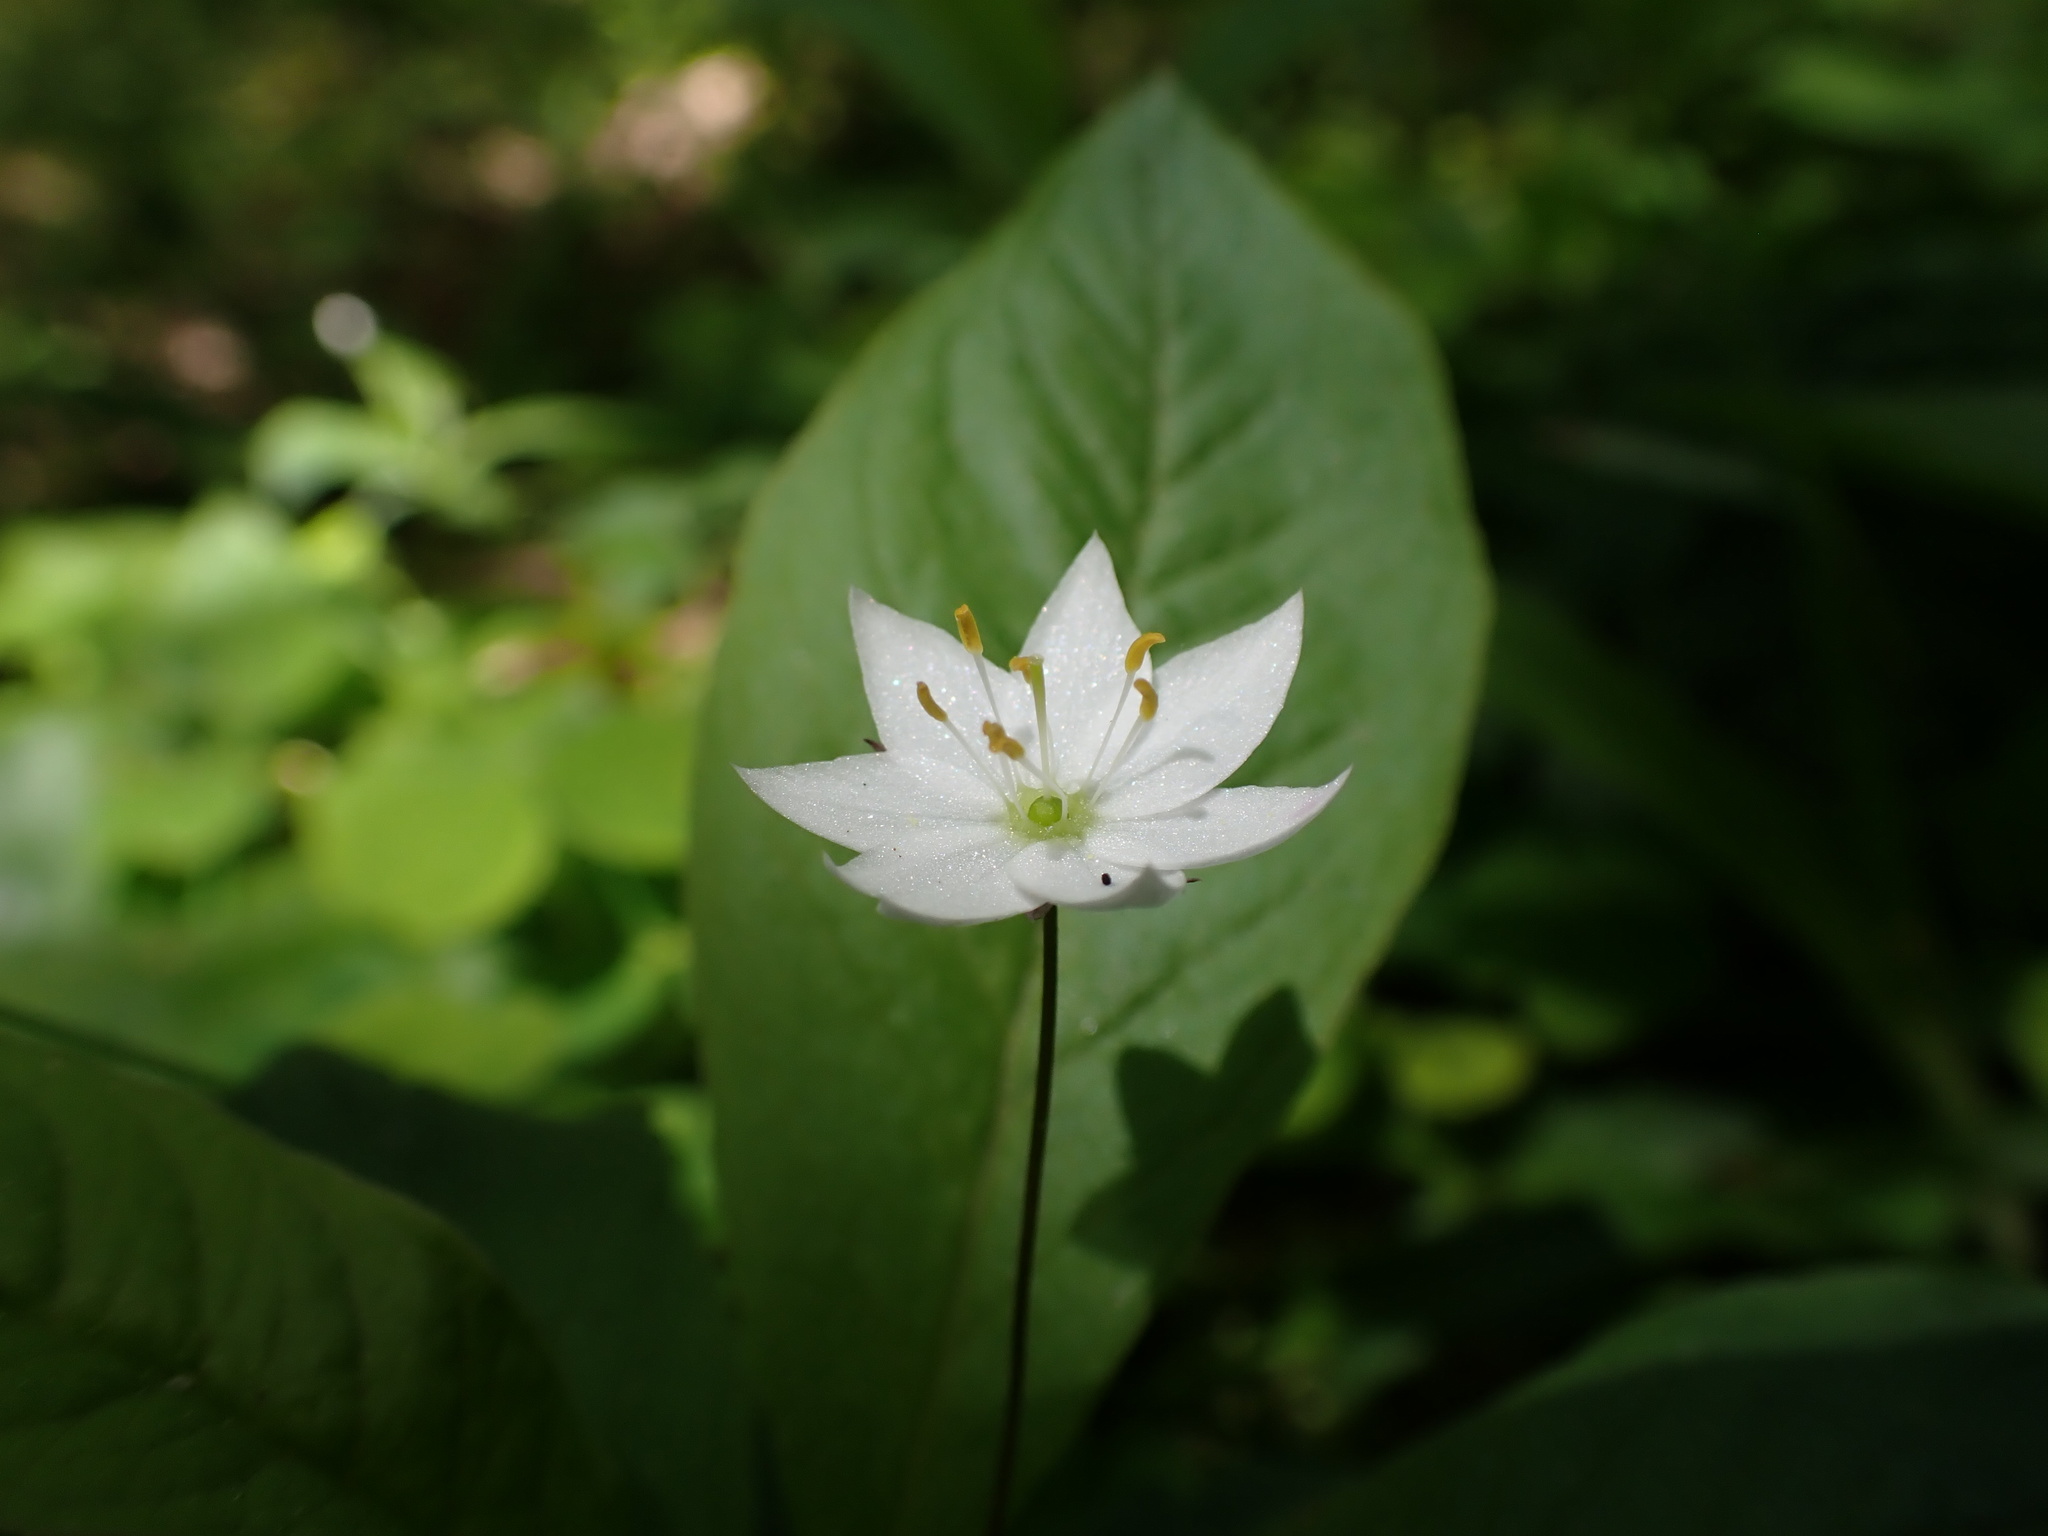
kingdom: Plantae
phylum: Tracheophyta
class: Magnoliopsida
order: Ericales
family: Primulaceae
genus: Lysimachia
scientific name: Lysimachia europaea
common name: Arctic starflower
